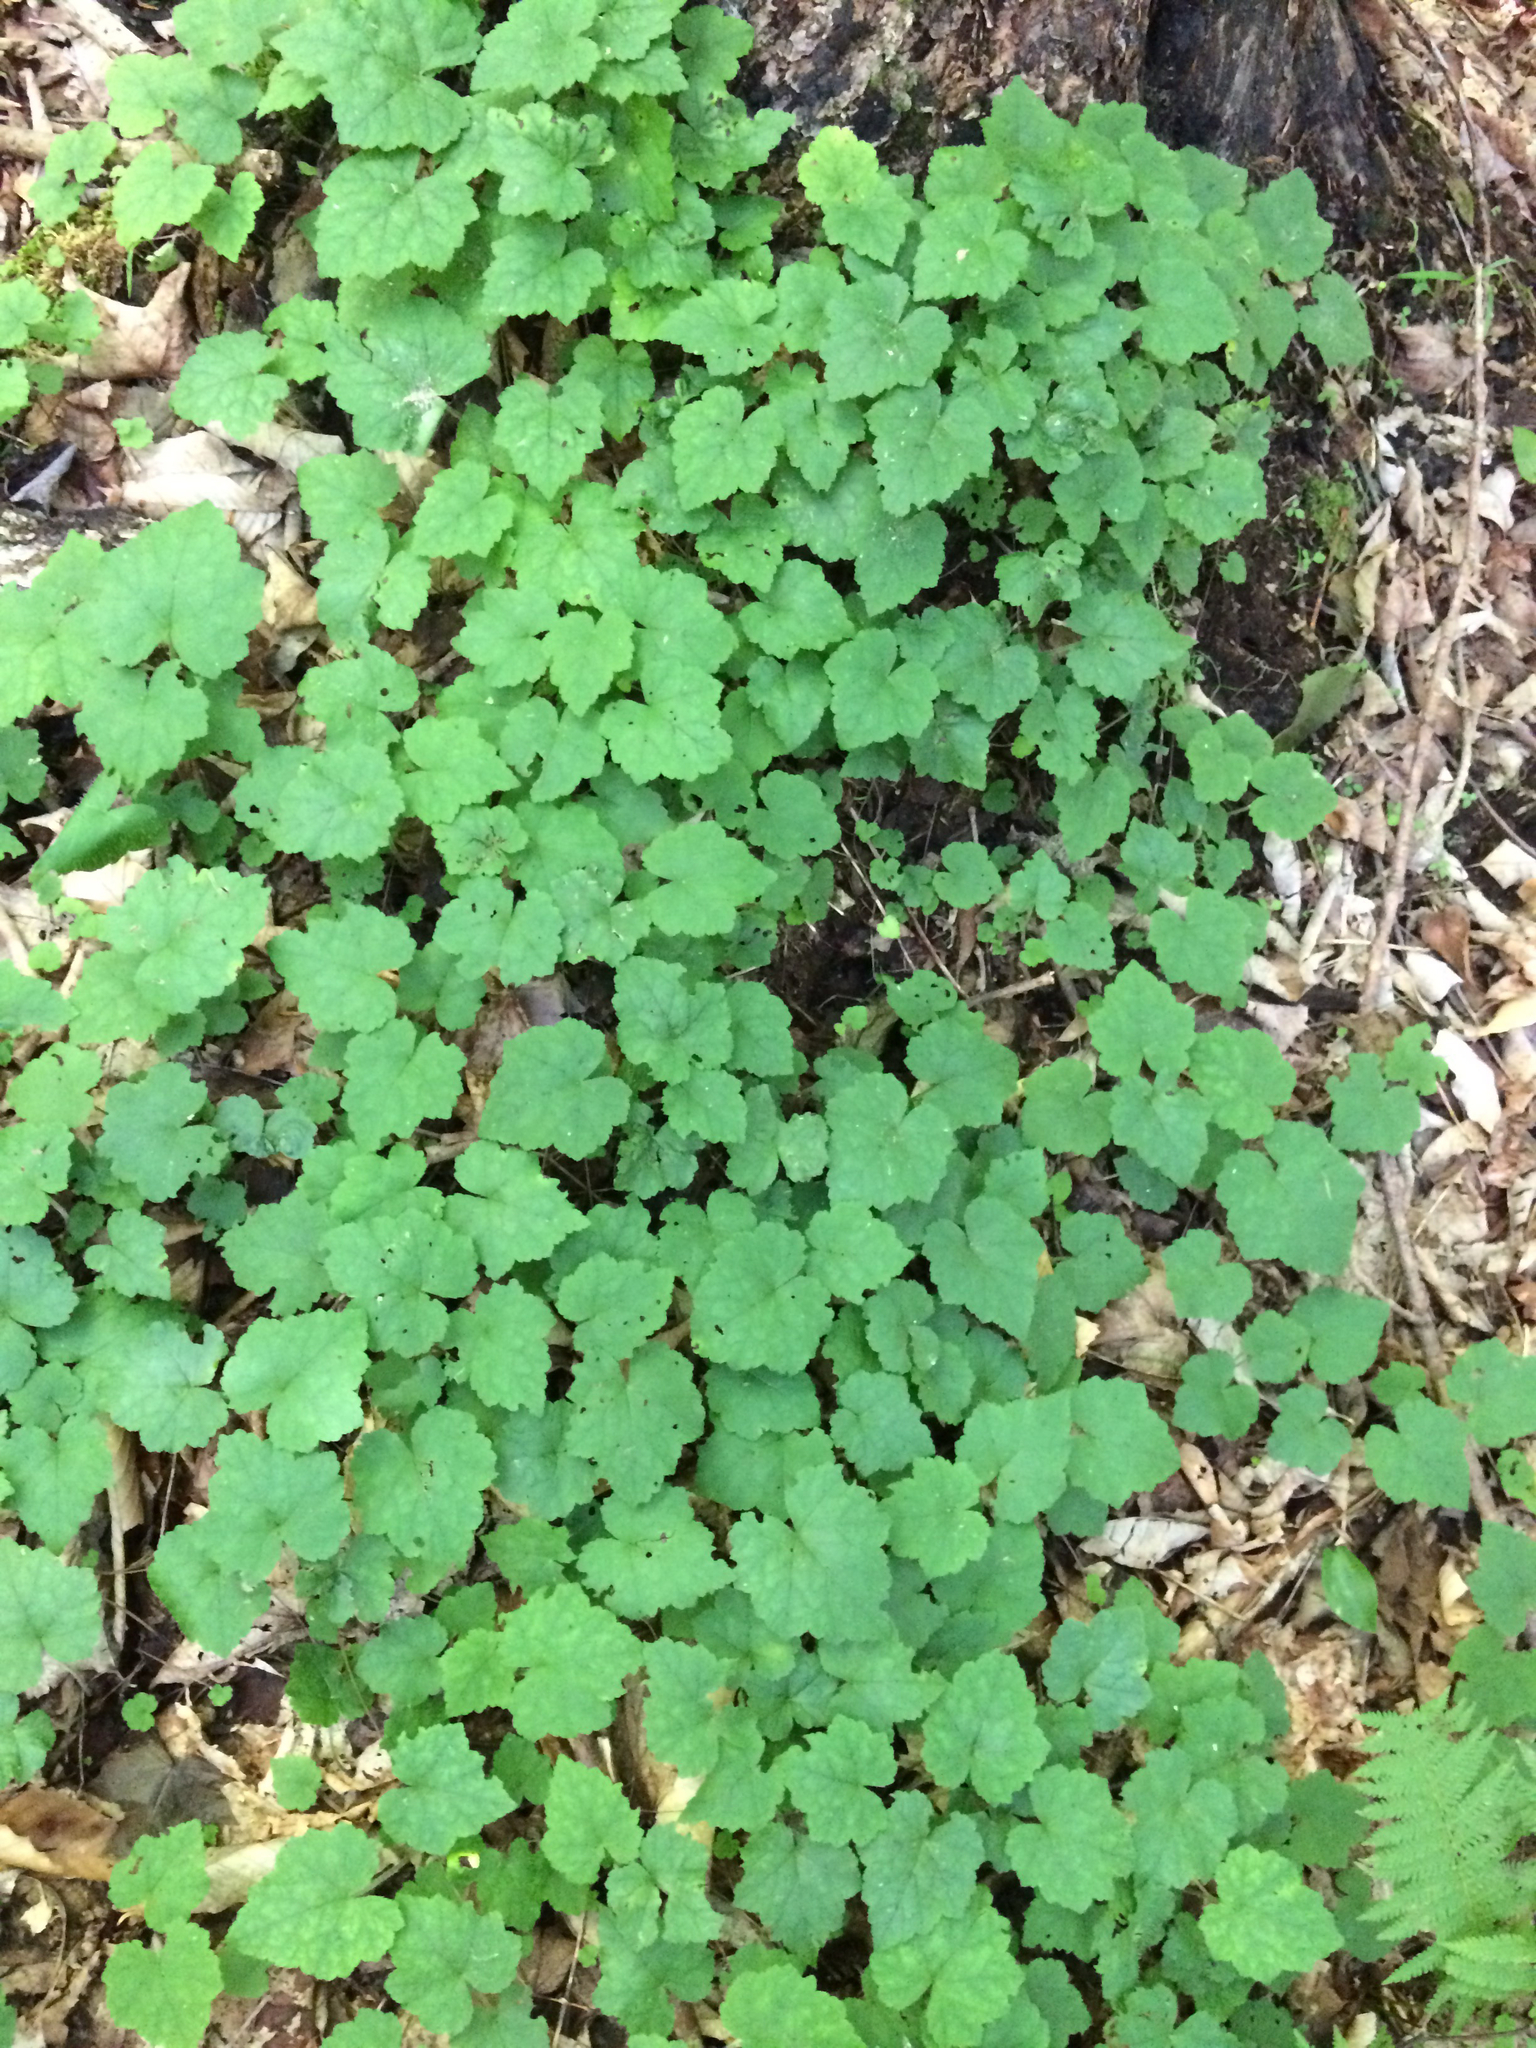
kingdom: Plantae
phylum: Tracheophyta
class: Magnoliopsida
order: Saxifragales
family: Saxifragaceae
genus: Tiarella
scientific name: Tiarella stolonifera
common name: Stoloniferous foamflower
